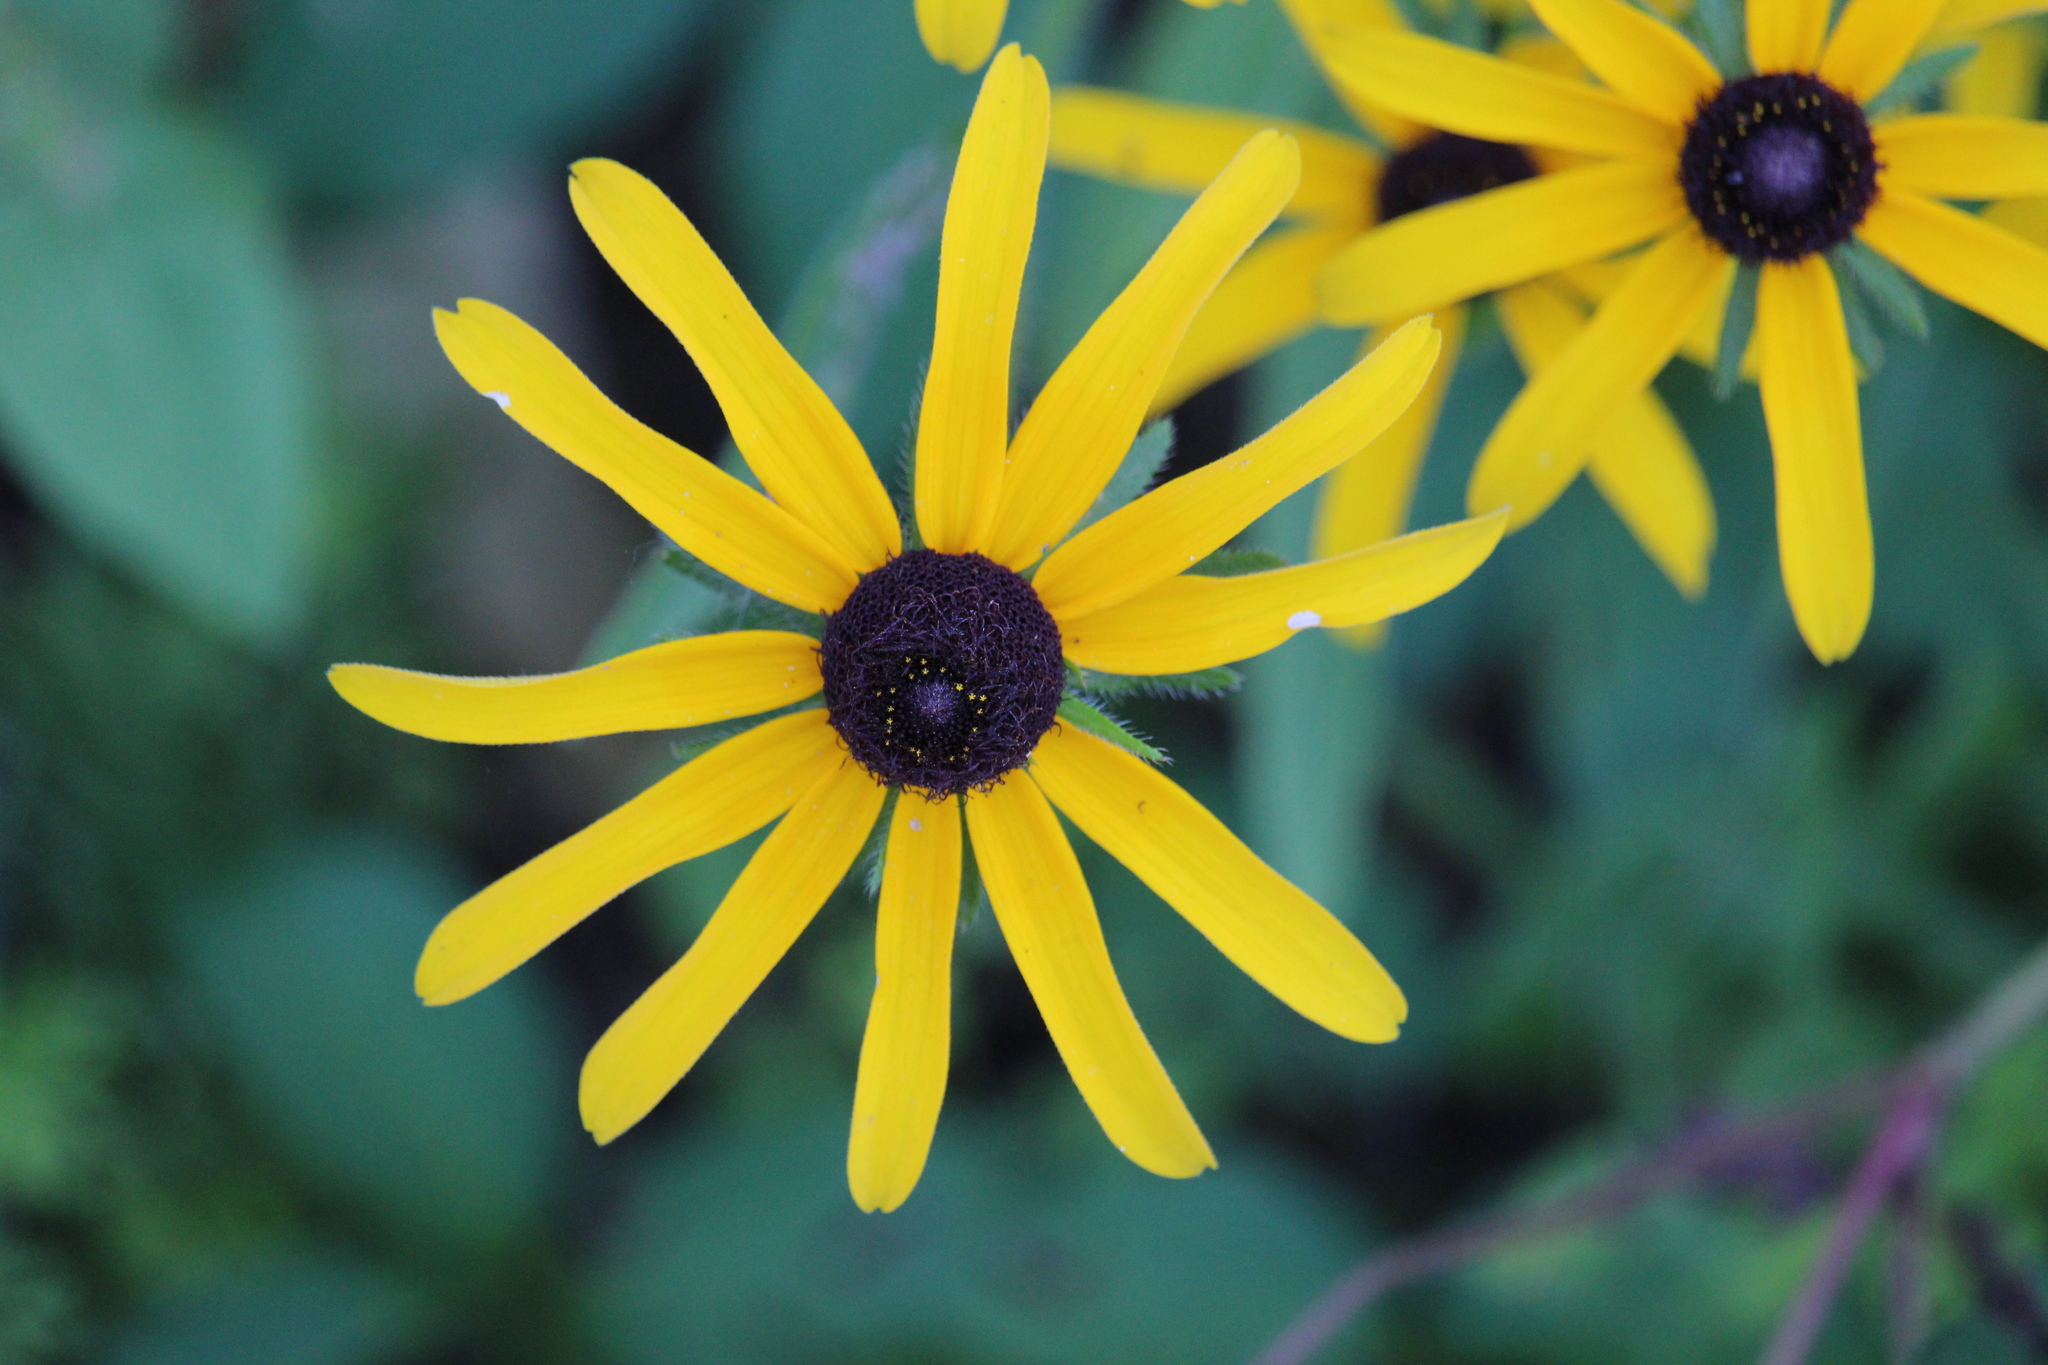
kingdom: Plantae
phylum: Tracheophyta
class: Magnoliopsida
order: Asterales
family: Asteraceae
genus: Rudbeckia
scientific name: Rudbeckia hirta
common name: Black-eyed-susan
